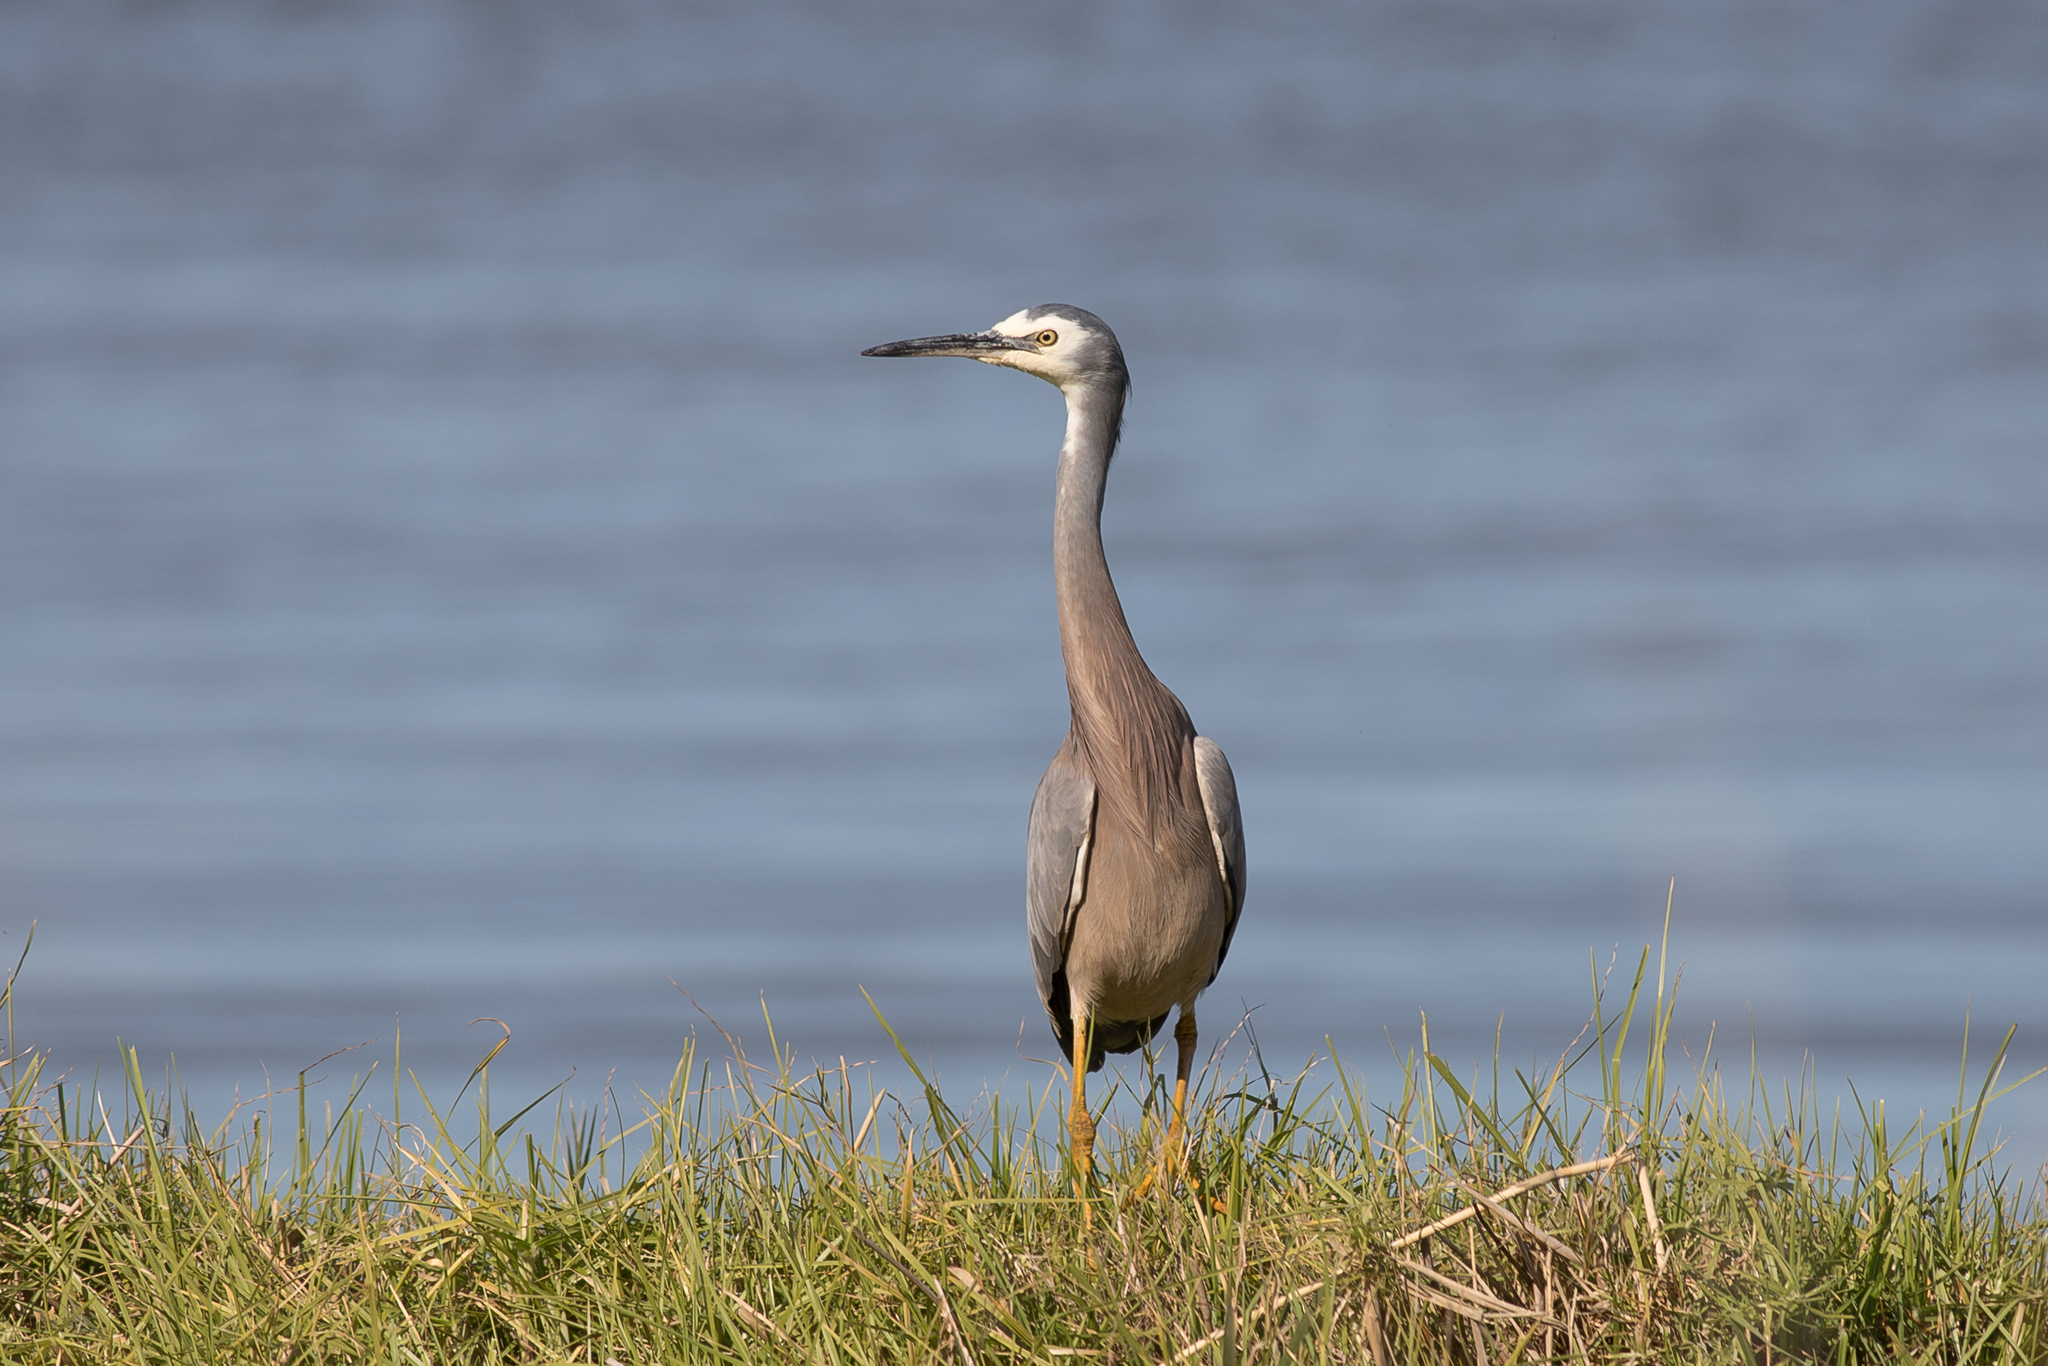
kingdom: Animalia
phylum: Chordata
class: Aves
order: Pelecaniformes
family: Ardeidae
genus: Egretta
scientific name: Egretta novaehollandiae
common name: White-faced heron
